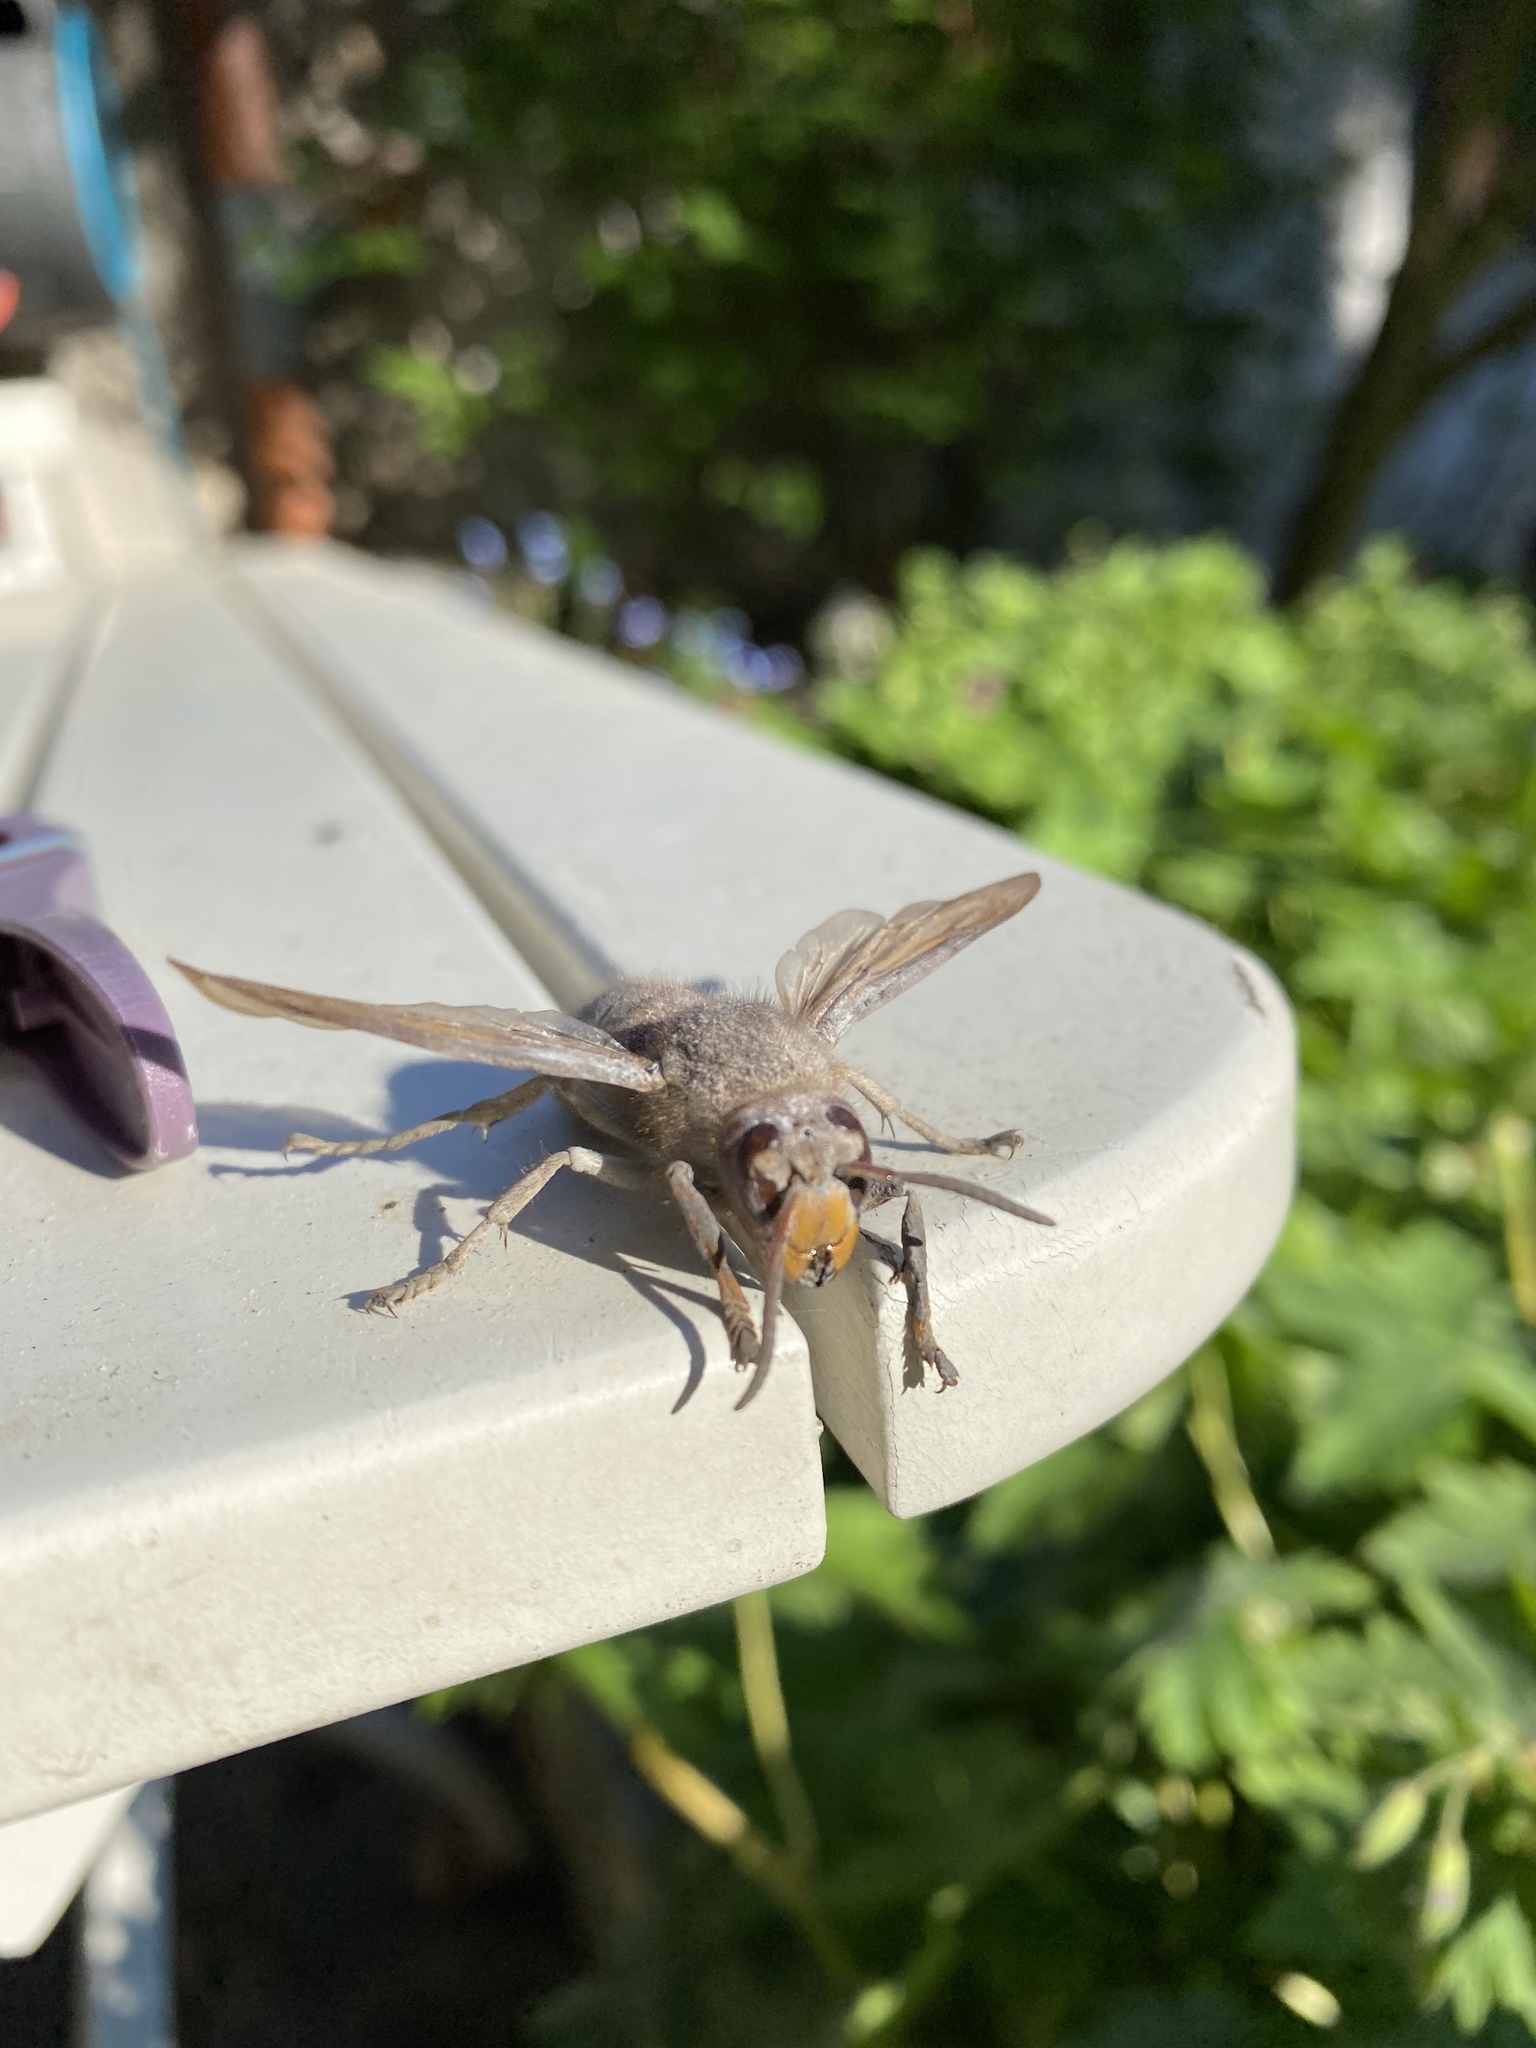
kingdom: Animalia
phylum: Arthropoda
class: Insecta
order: Hymenoptera
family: Vespidae
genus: Vespa
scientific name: Vespa crabro
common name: Hornet
